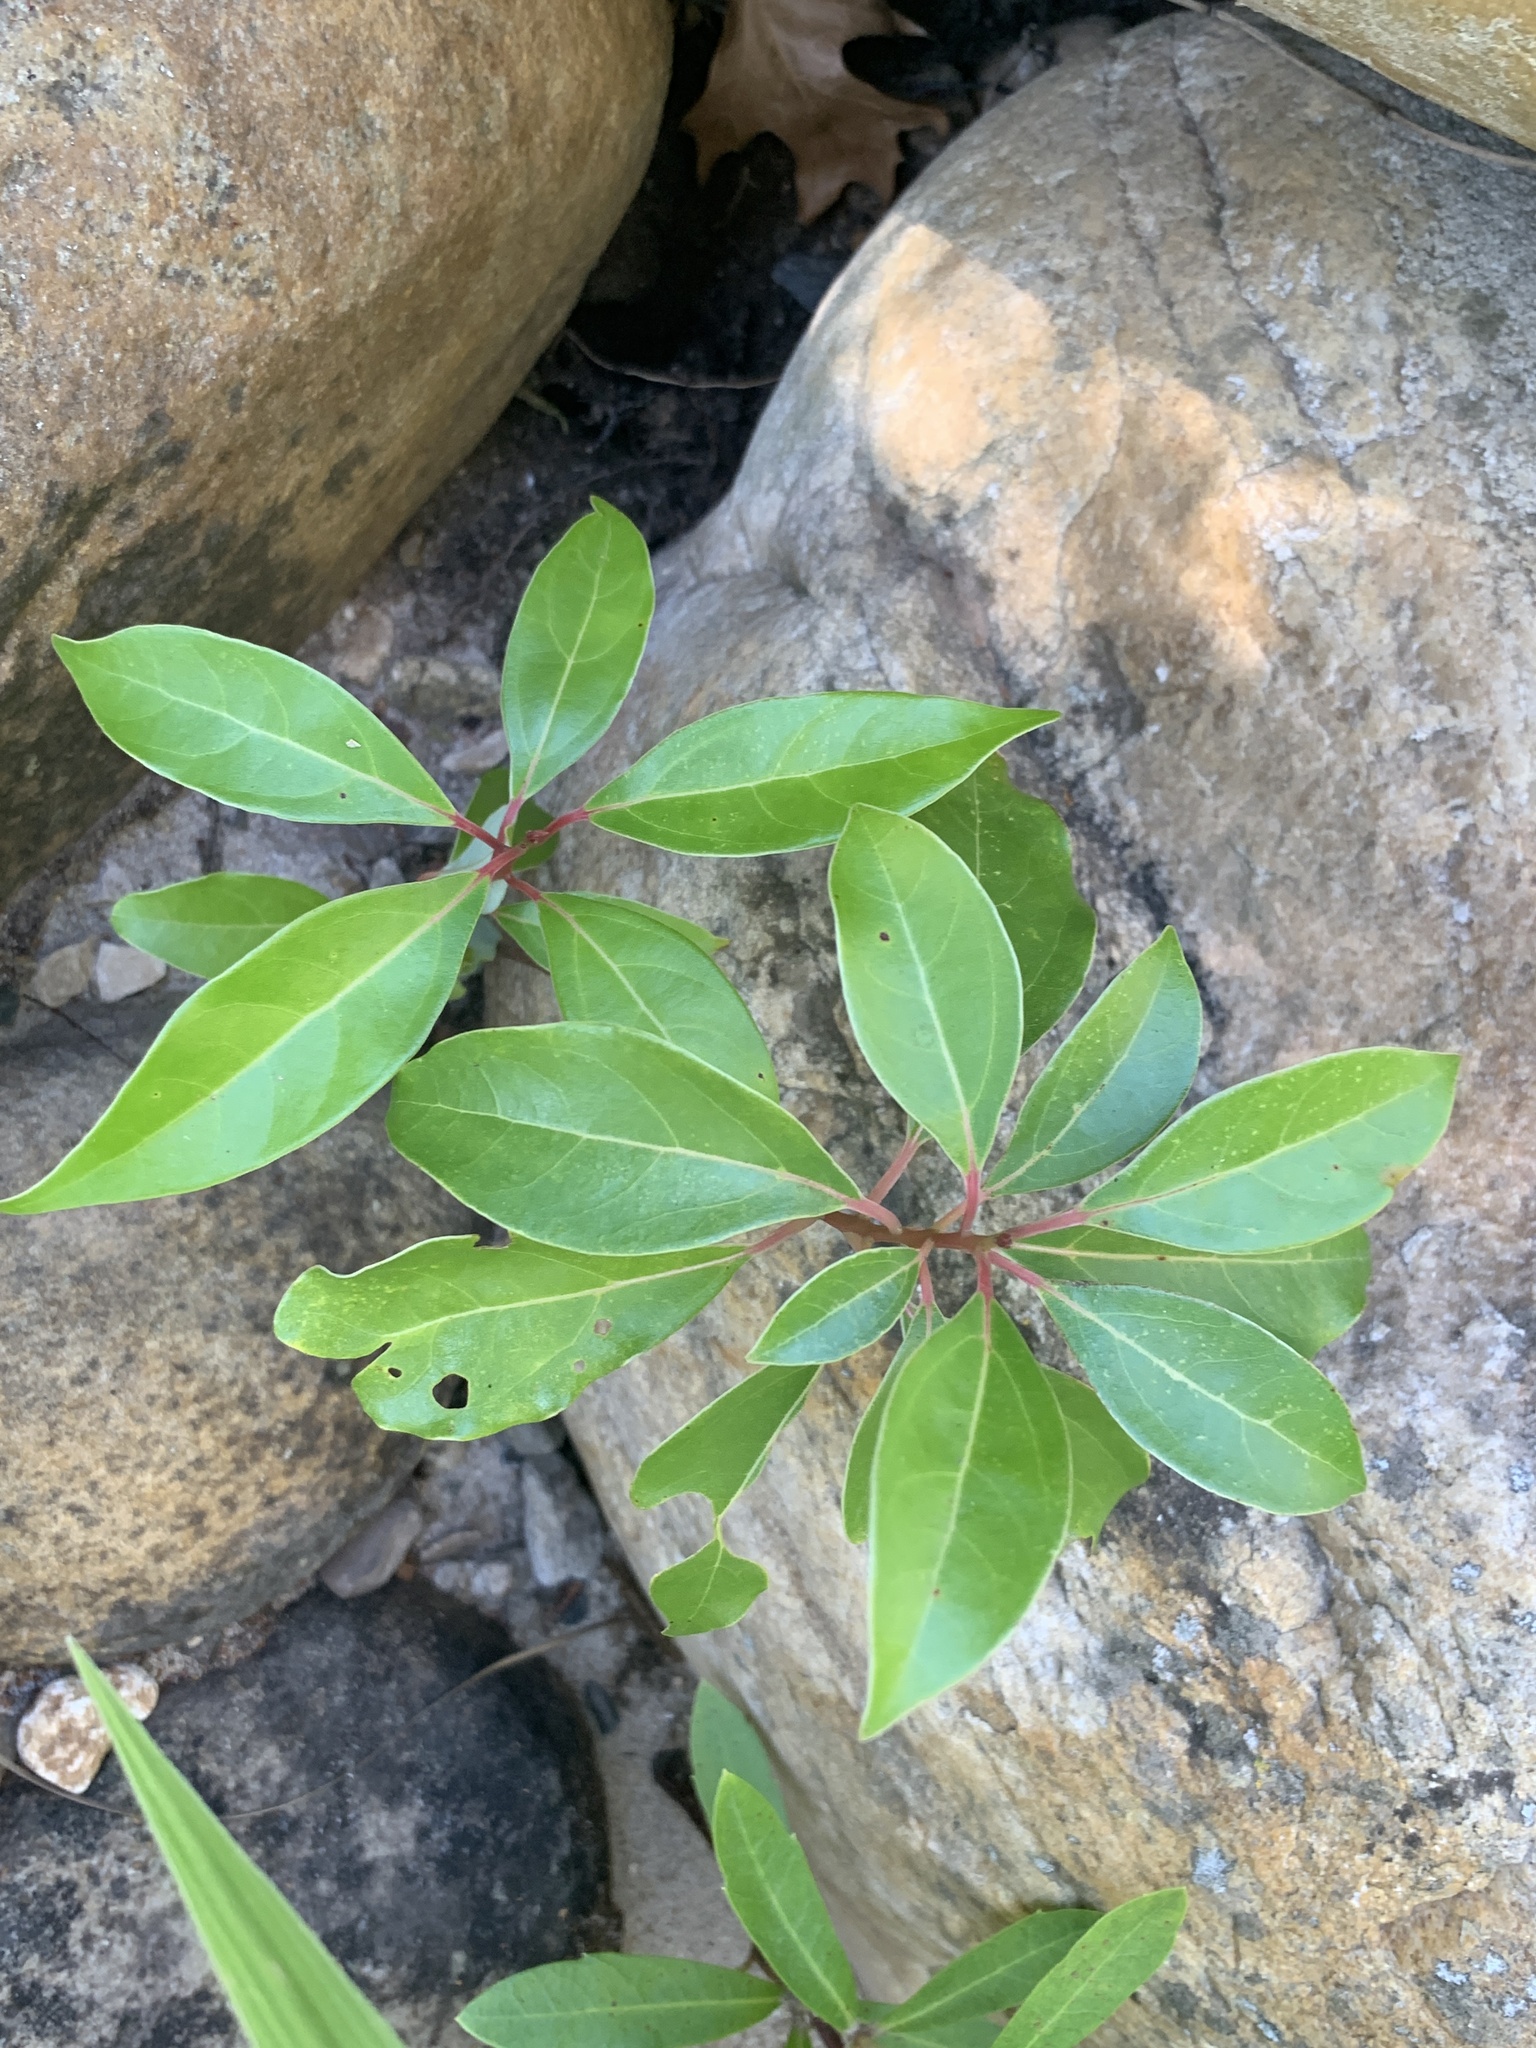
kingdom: Plantae
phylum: Tracheophyta
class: Magnoliopsida
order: Laurales
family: Lauraceae
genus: Cinnamomum
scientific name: Cinnamomum camphora
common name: Camphortree
